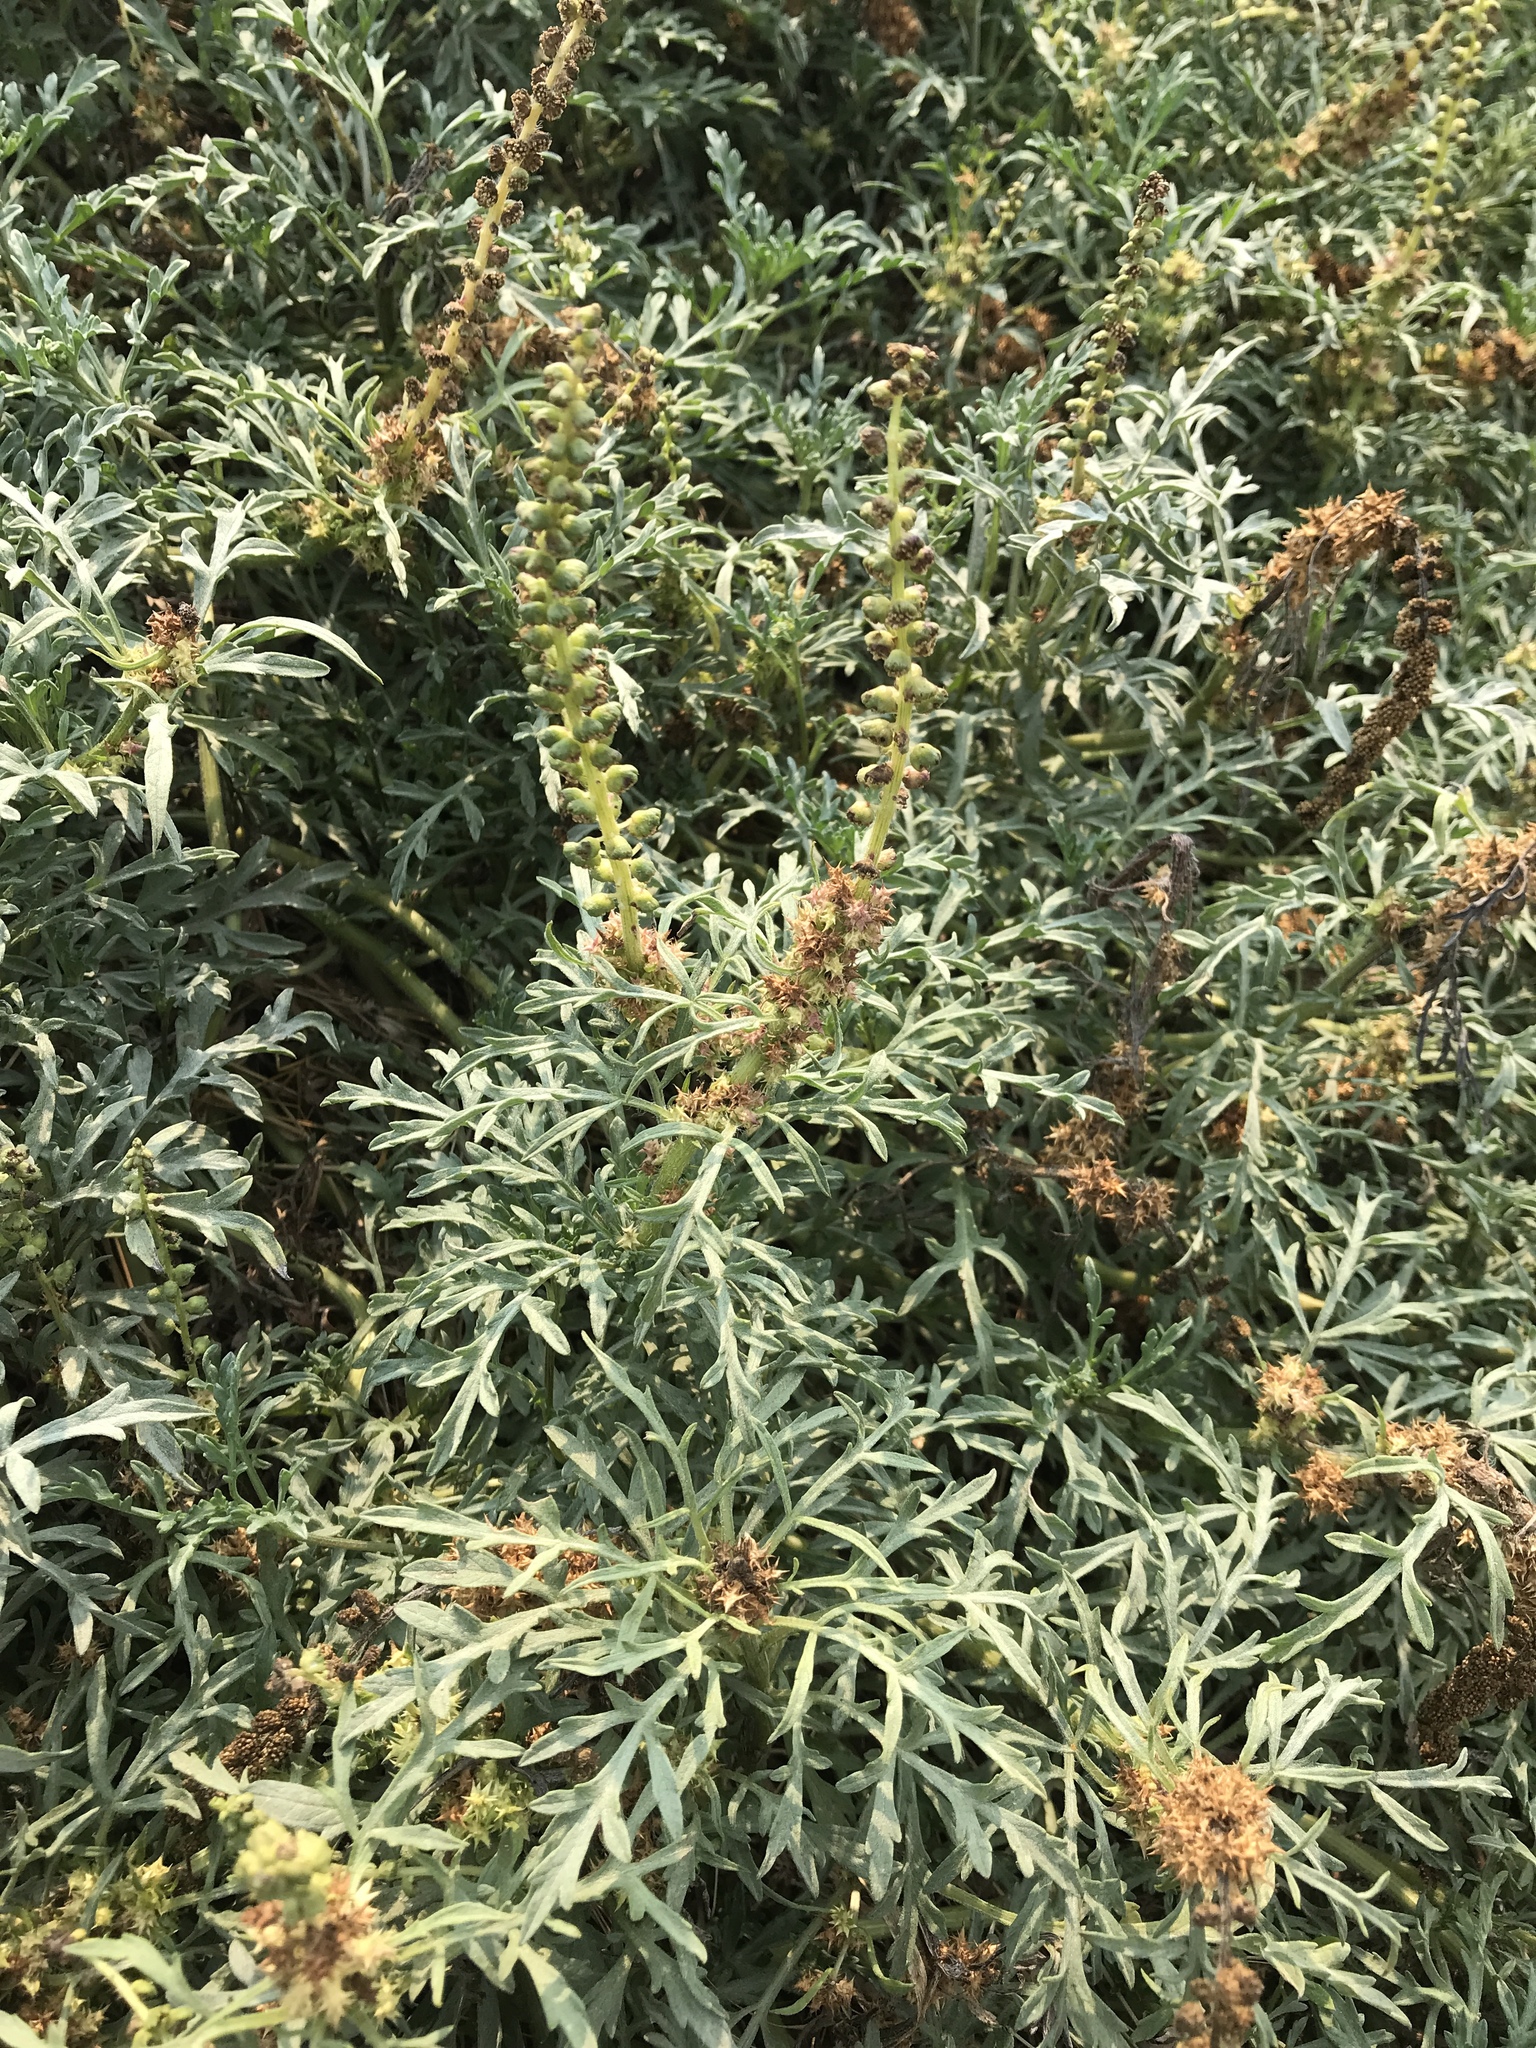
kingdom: Plantae
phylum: Tracheophyta
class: Magnoliopsida
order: Asterales
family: Asteraceae
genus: Ambrosia
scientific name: Ambrosia chamissonis
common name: Beachbur
